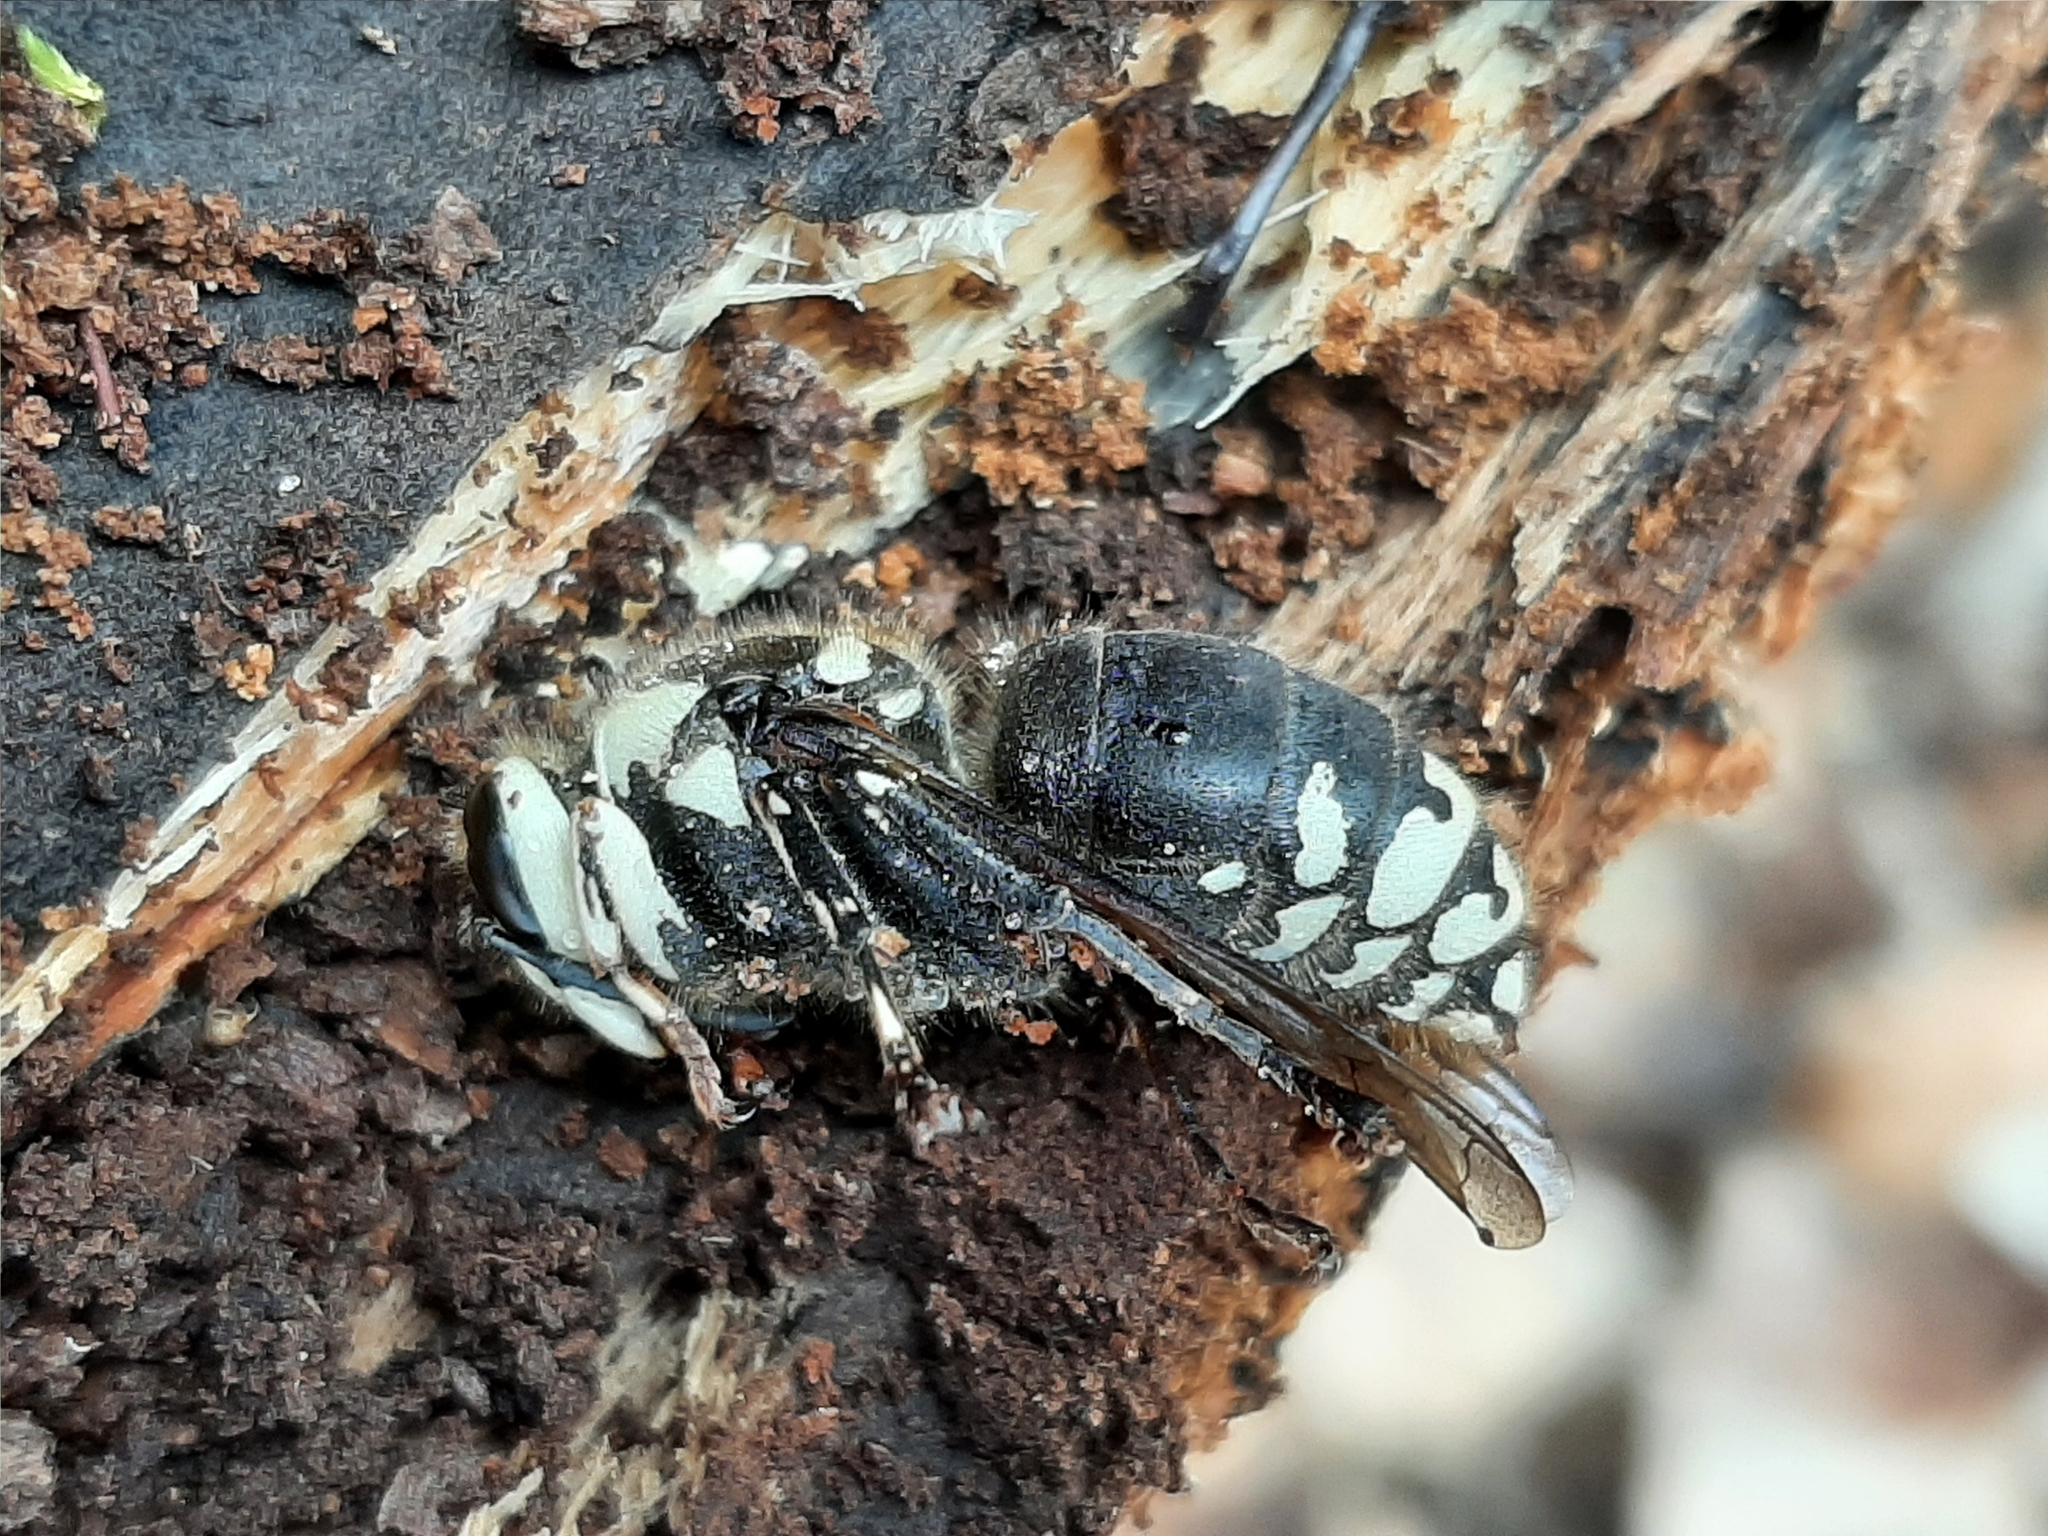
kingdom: Animalia
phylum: Arthropoda
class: Insecta
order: Hymenoptera
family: Vespidae
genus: Dolichovespula
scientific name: Dolichovespula maculata
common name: Bald-faced hornet
